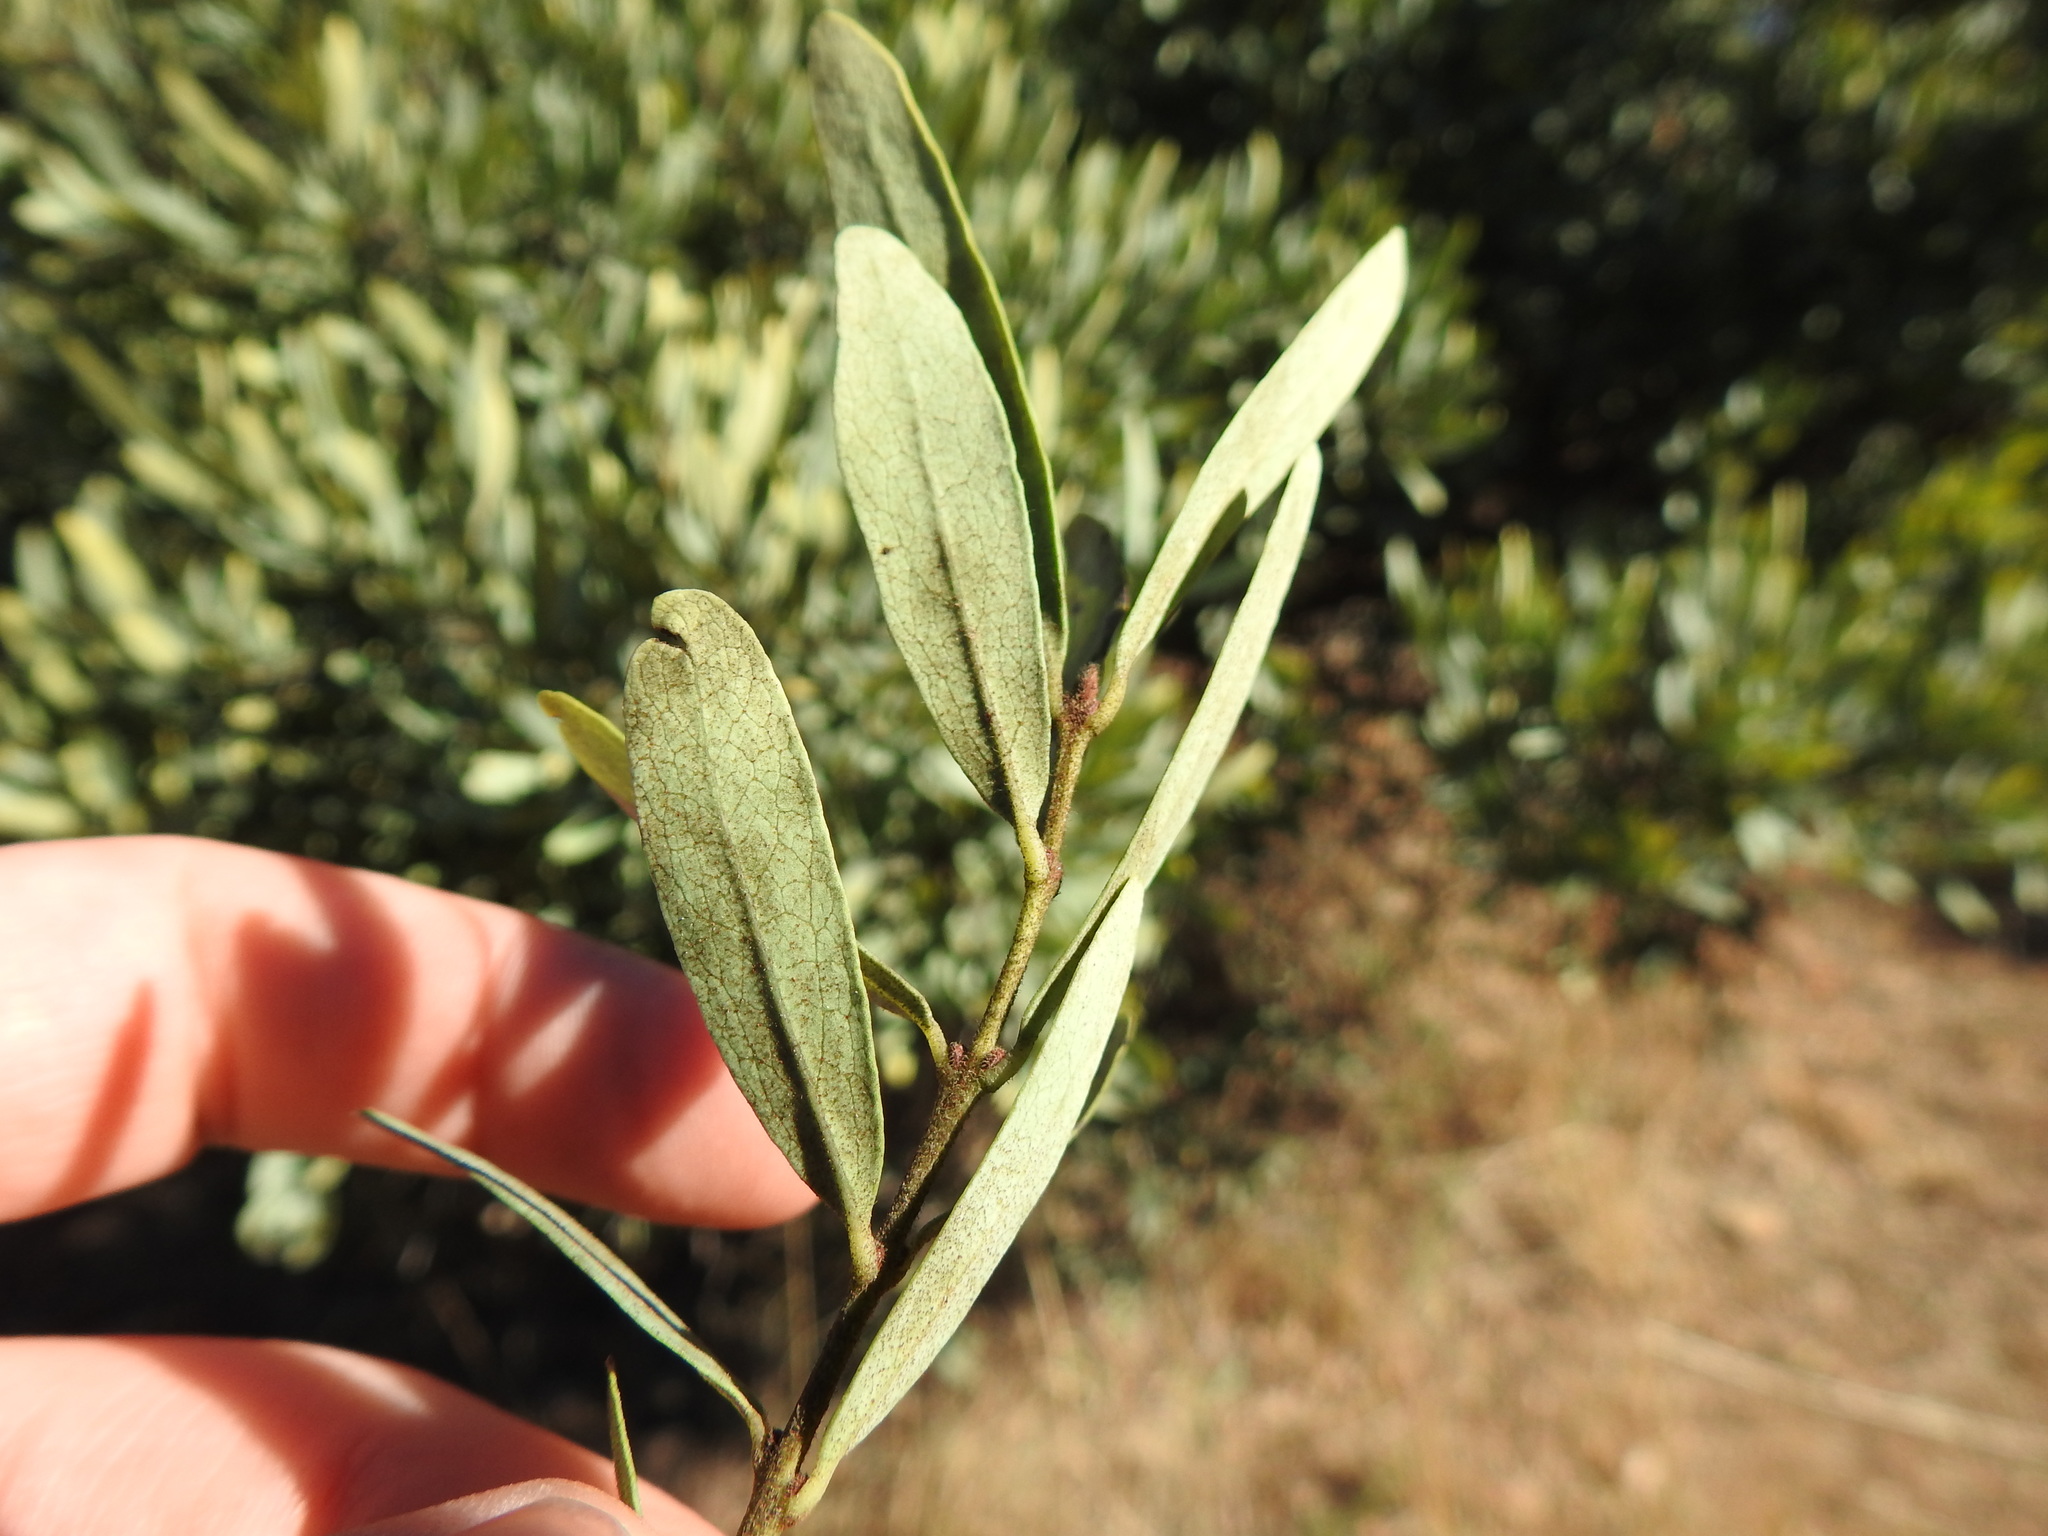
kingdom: Plantae
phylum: Tracheophyta
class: Magnoliopsida
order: Ericales
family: Ebenaceae
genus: Euclea
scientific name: Euclea crispa
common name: Blue guarri
